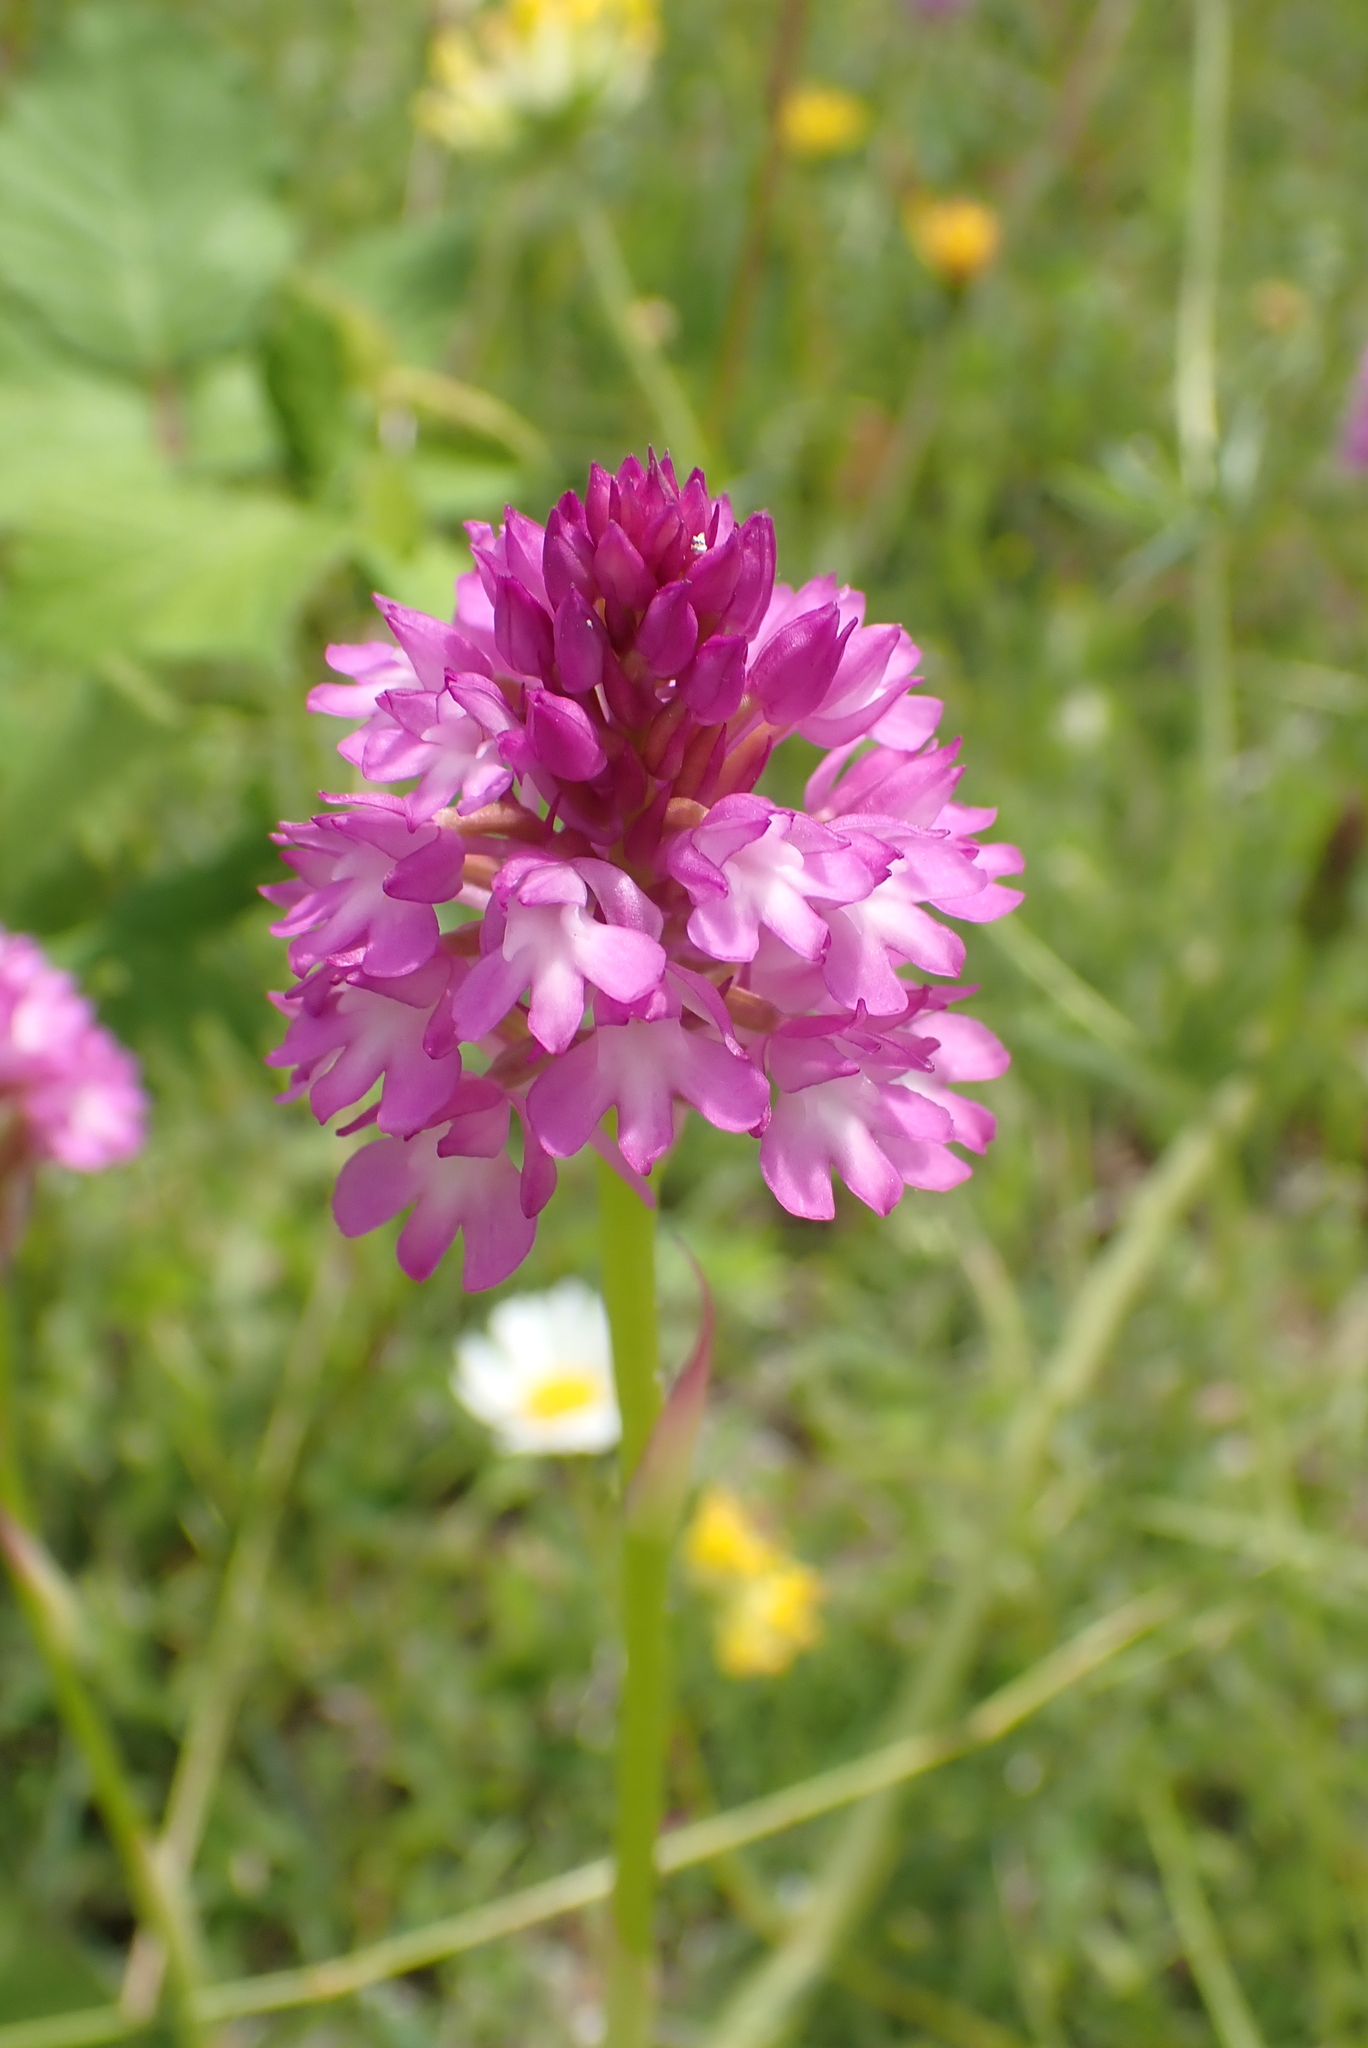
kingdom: Plantae
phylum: Tracheophyta
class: Liliopsida
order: Asparagales
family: Orchidaceae
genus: Anacamptis
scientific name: Anacamptis pyramidalis
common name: Pyramidal orchid
